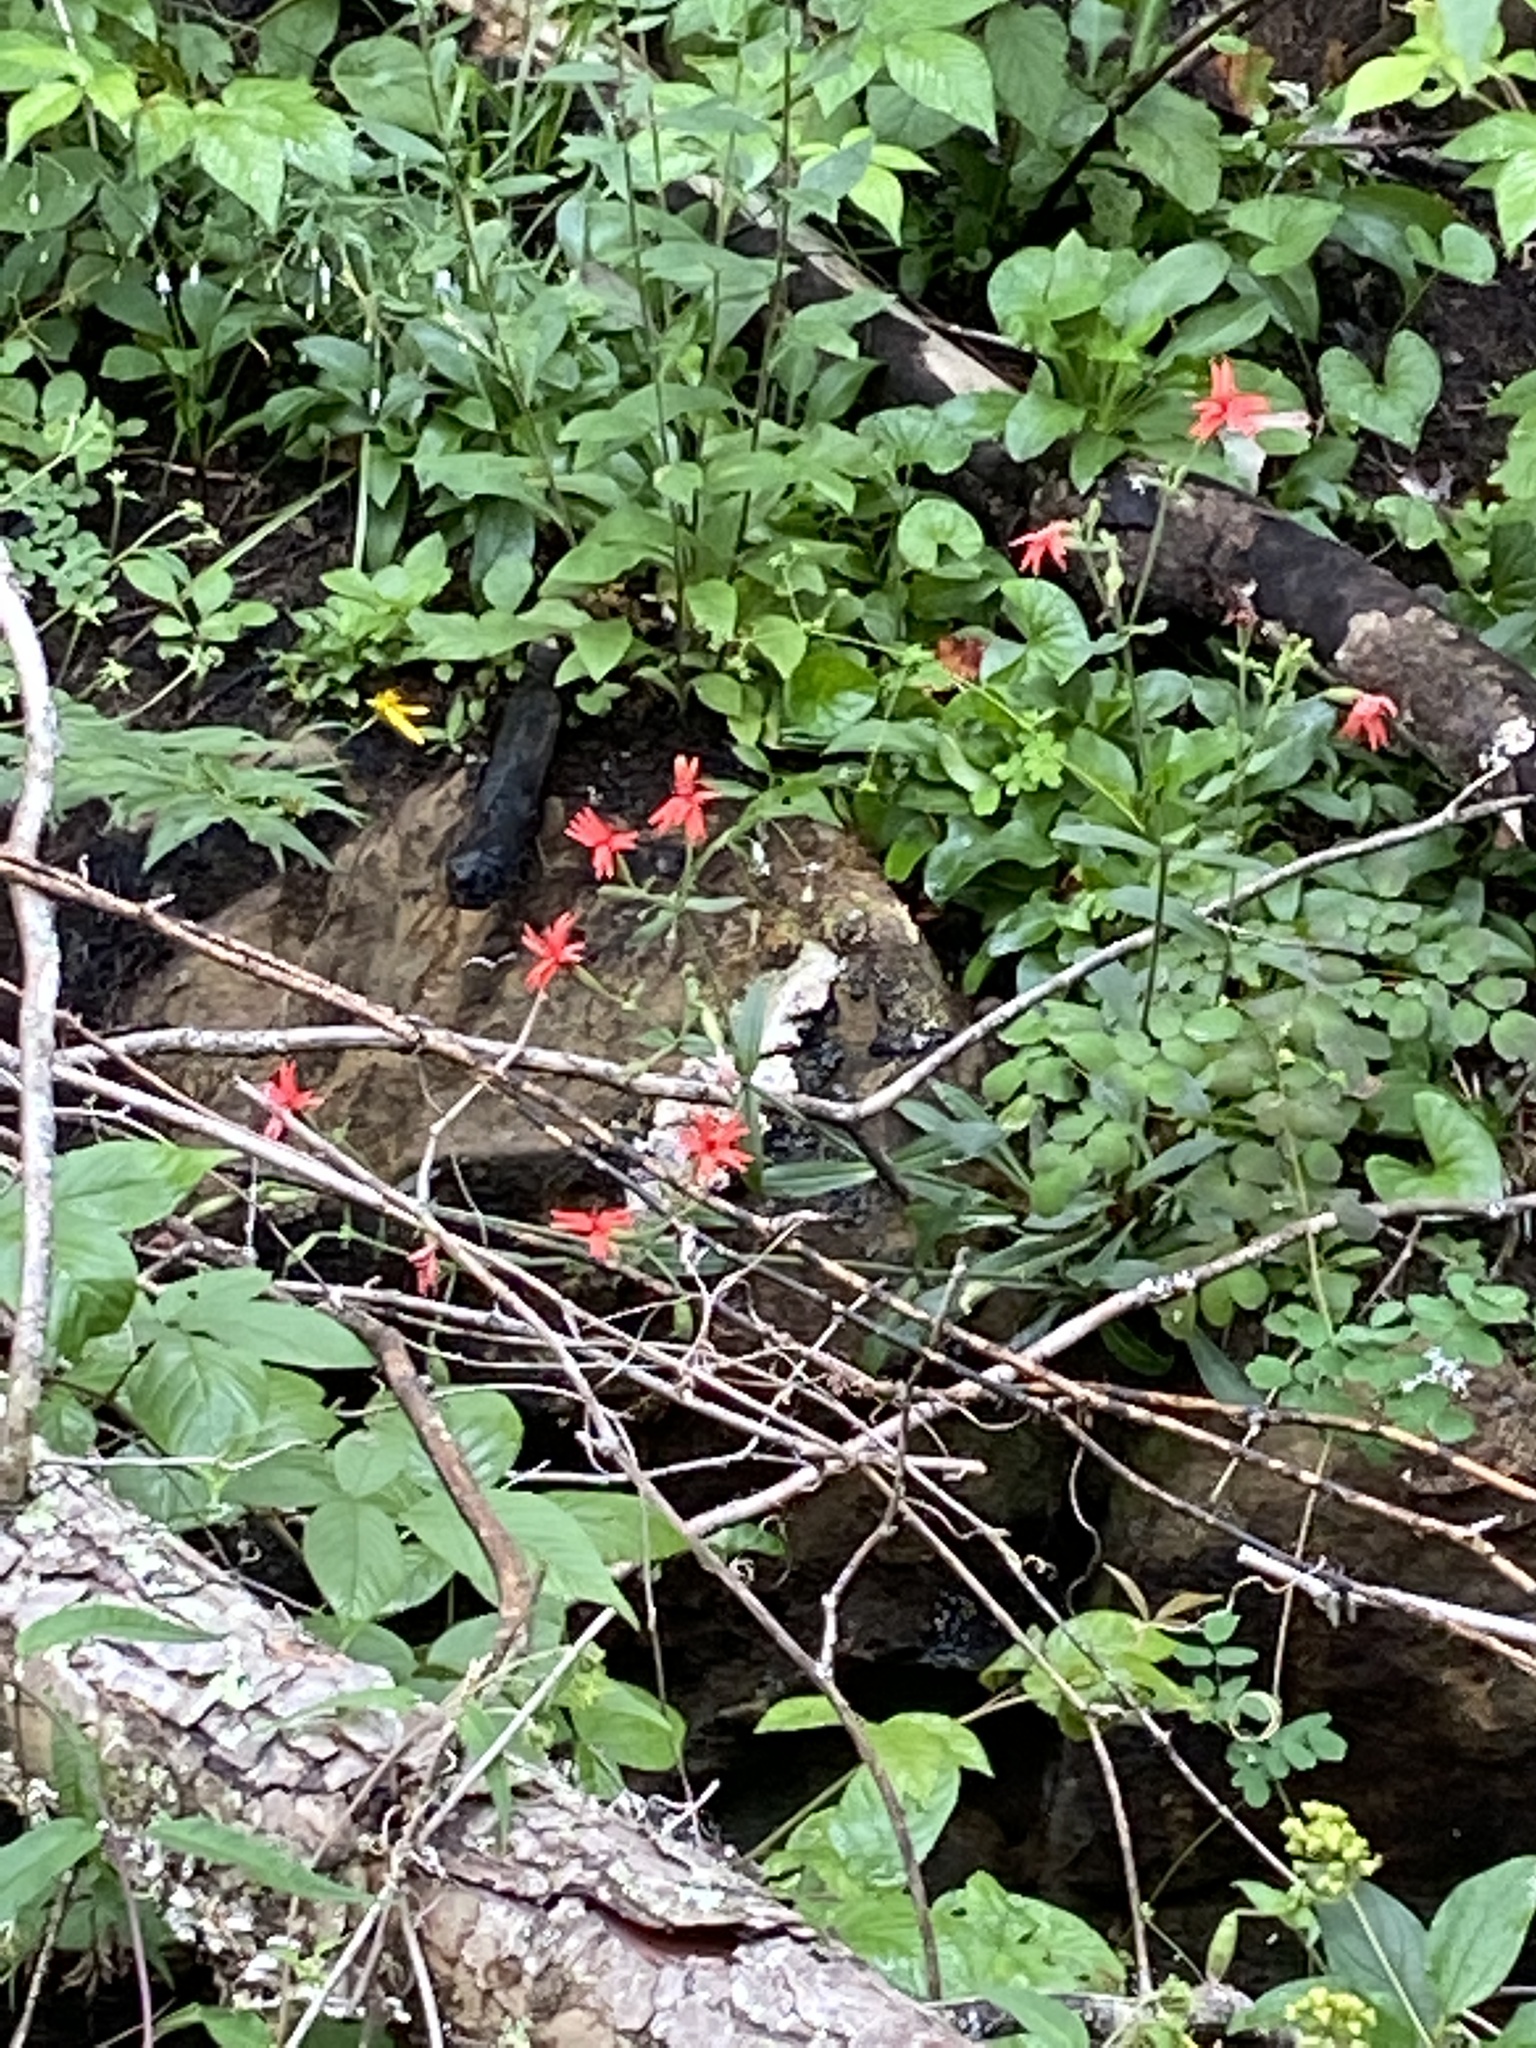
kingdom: Plantae
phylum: Tracheophyta
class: Magnoliopsida
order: Caryophyllales
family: Caryophyllaceae
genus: Silene
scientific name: Silene virginica
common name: Fire-pink
